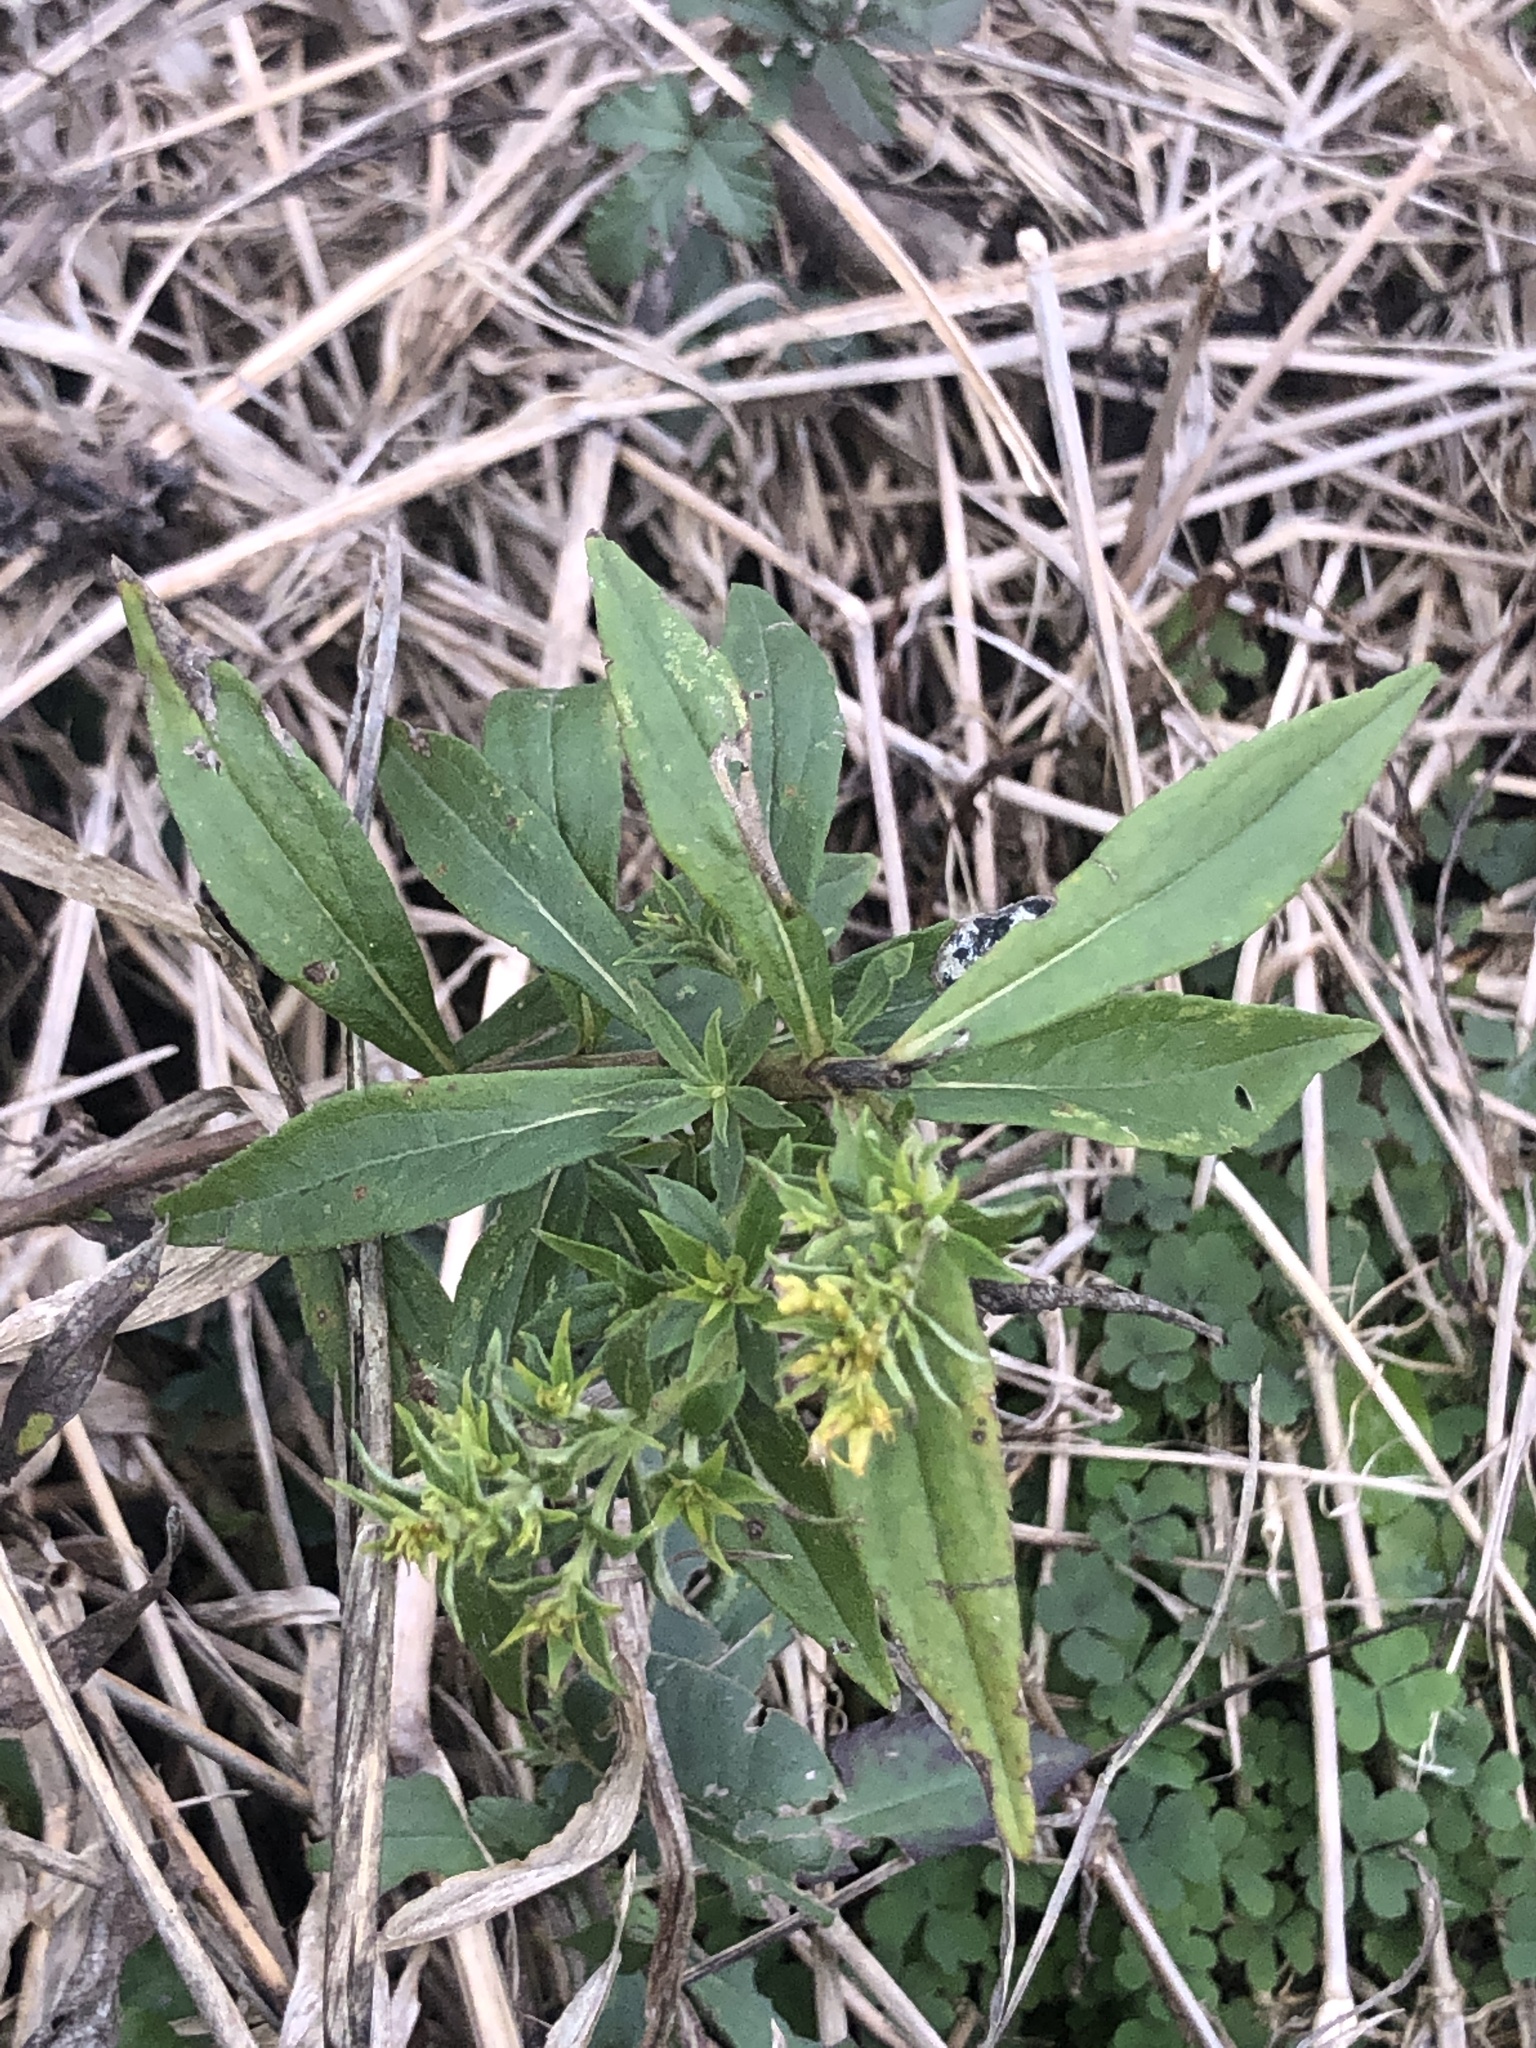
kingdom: Plantae
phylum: Tracheophyta
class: Magnoliopsida
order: Asterales
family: Asteraceae
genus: Solidago
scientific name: Solidago altissima
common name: Late goldenrod
